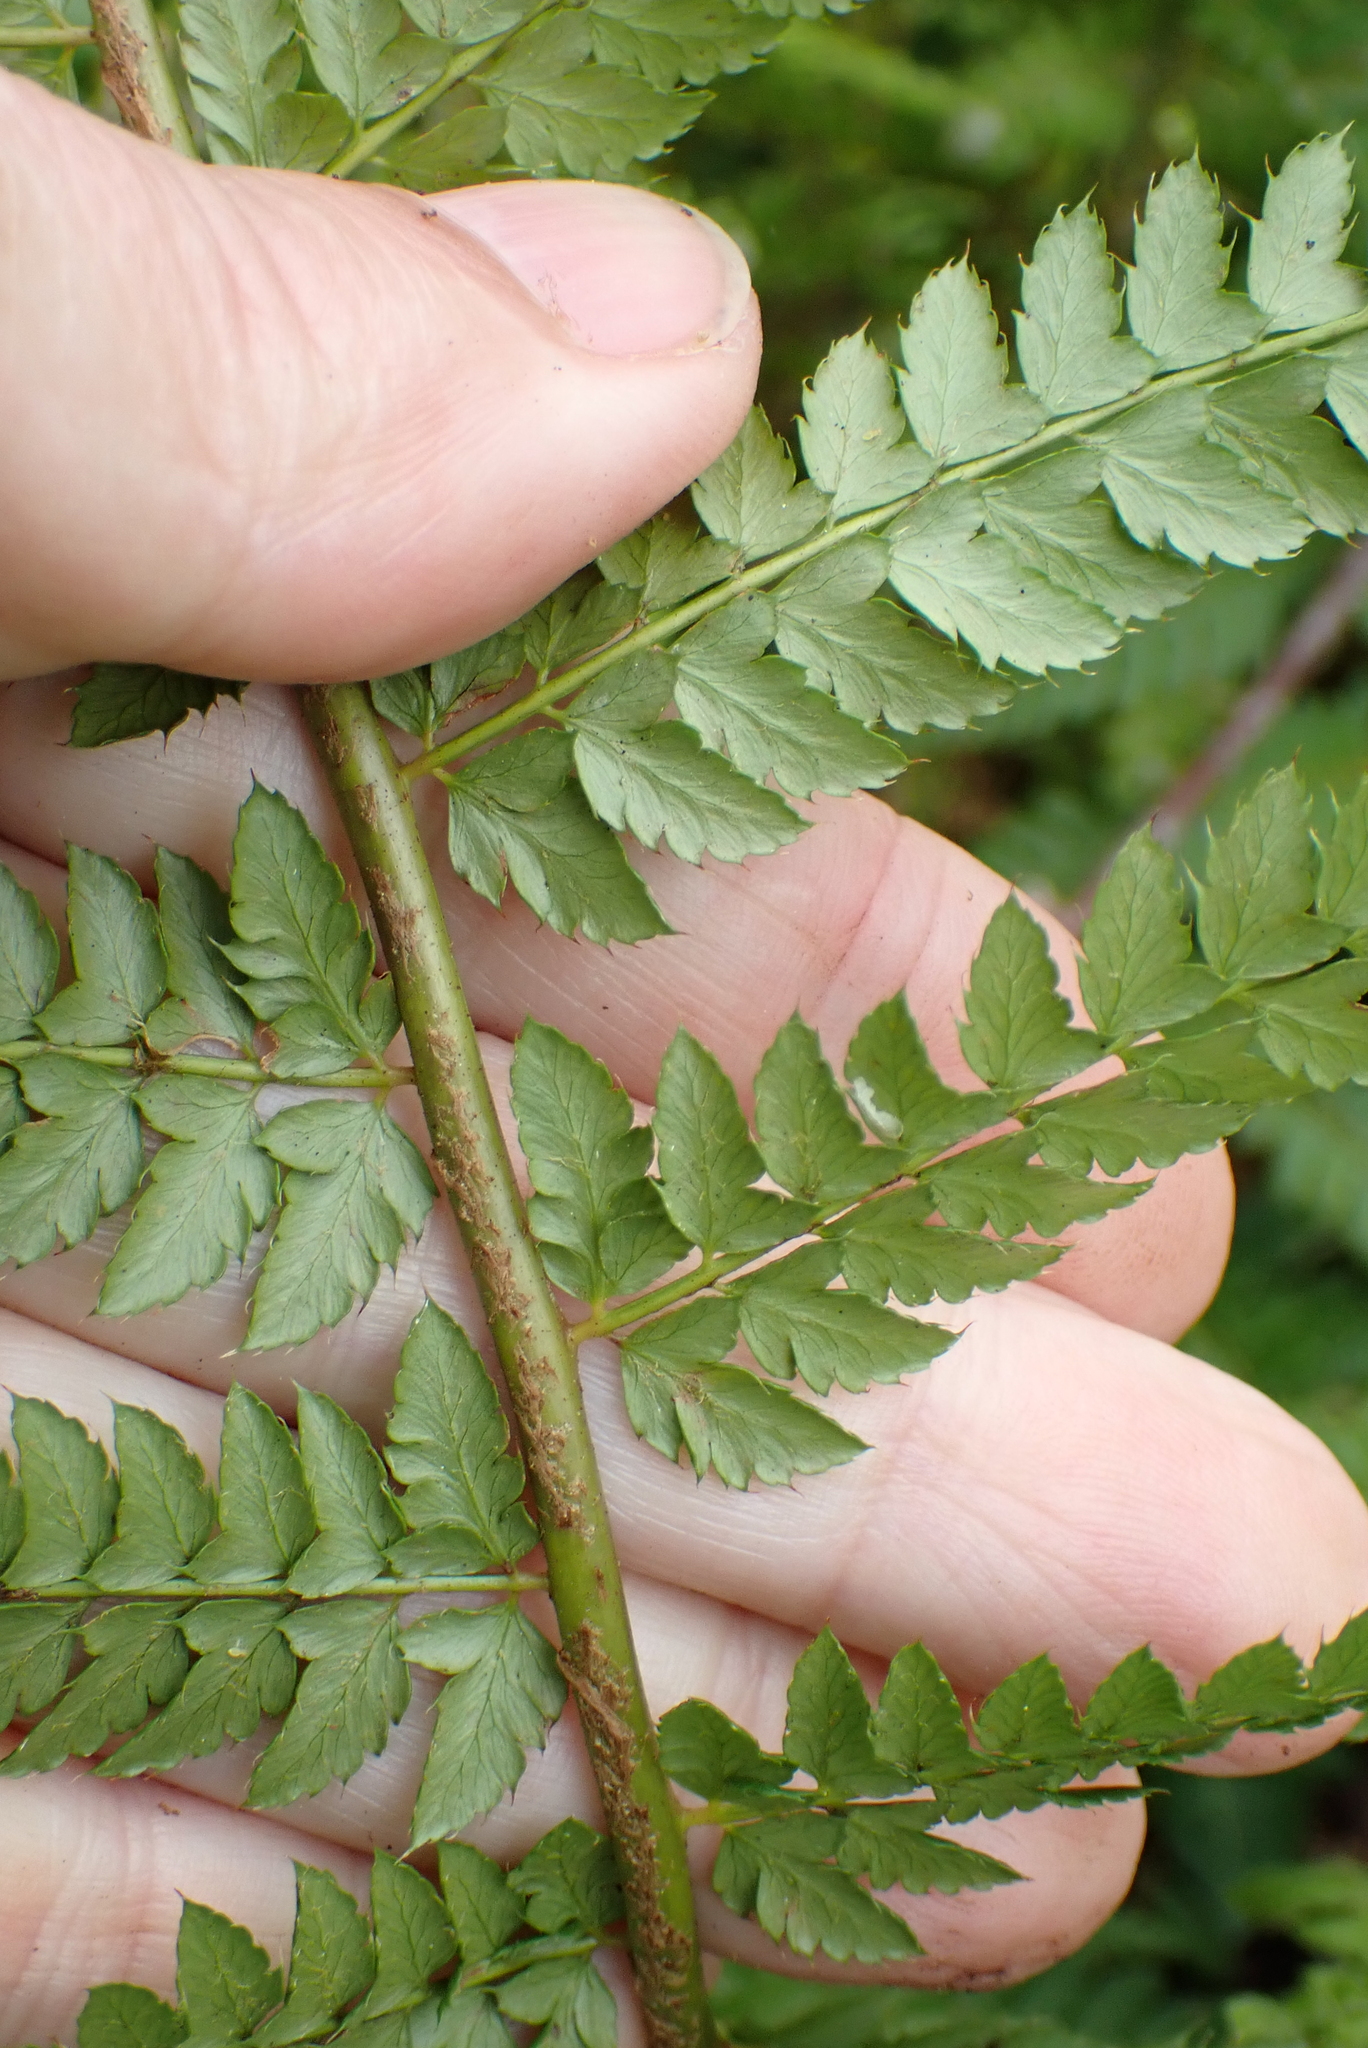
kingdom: Plantae
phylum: Tracheophyta
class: Polypodiopsida
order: Polypodiales
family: Dryopteridaceae
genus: Polystichum
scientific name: Polystichum setiferum
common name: Soft shield-fern
